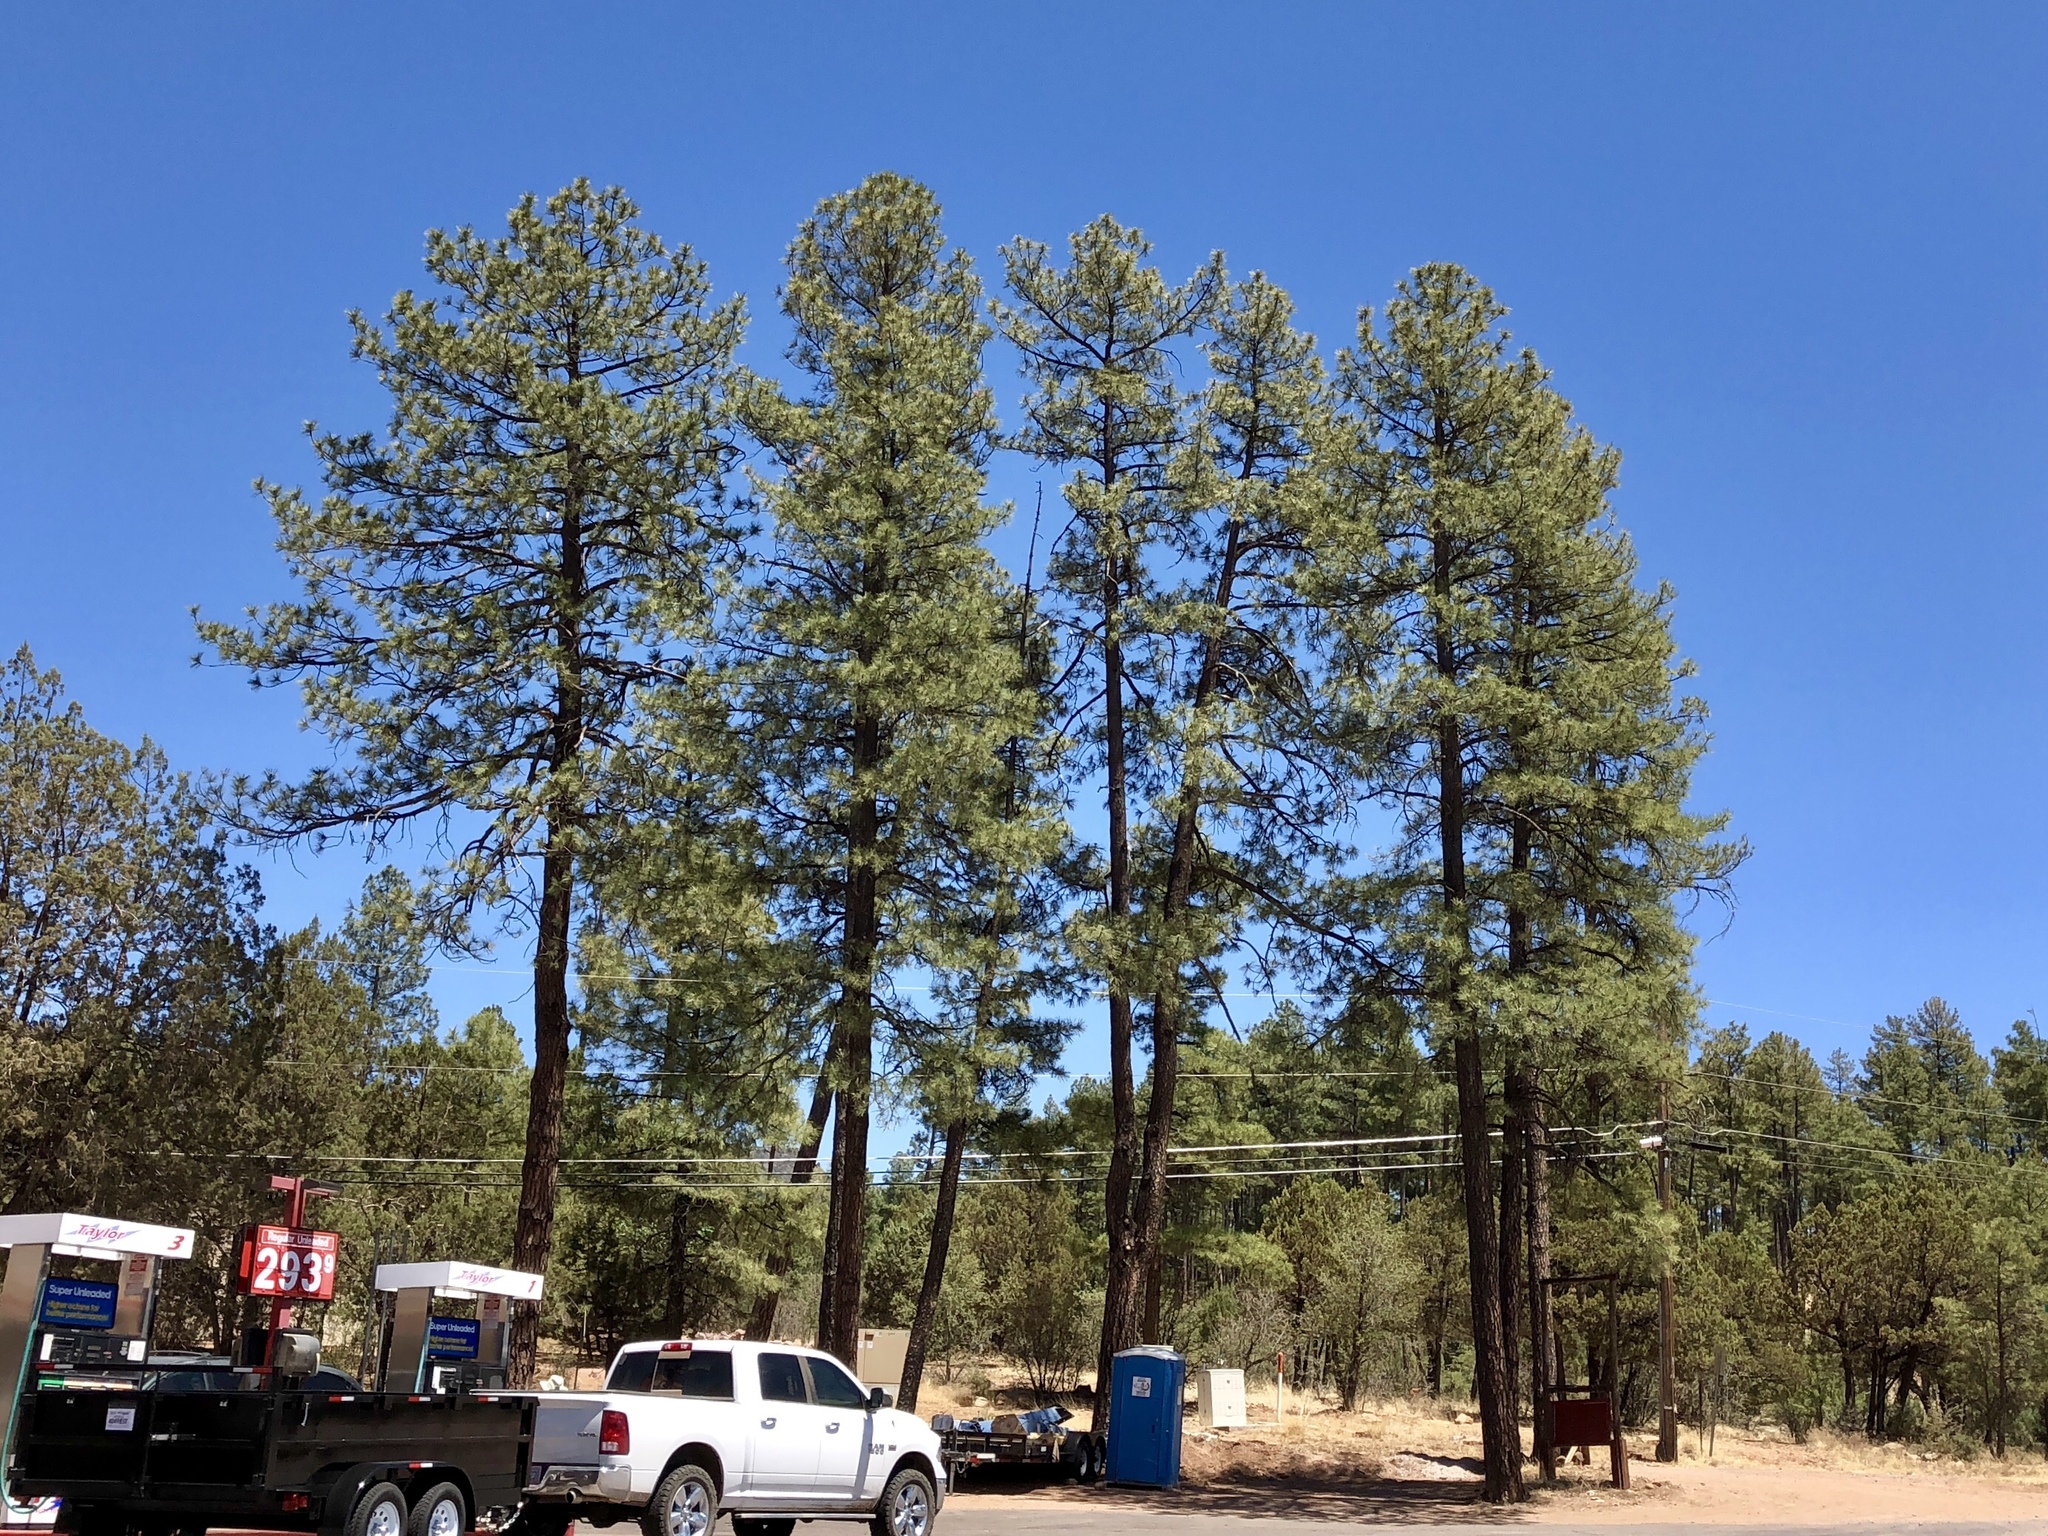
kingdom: Plantae
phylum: Tracheophyta
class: Pinopsida
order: Pinales
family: Pinaceae
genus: Pinus
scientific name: Pinus ponderosa
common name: Western yellow-pine
